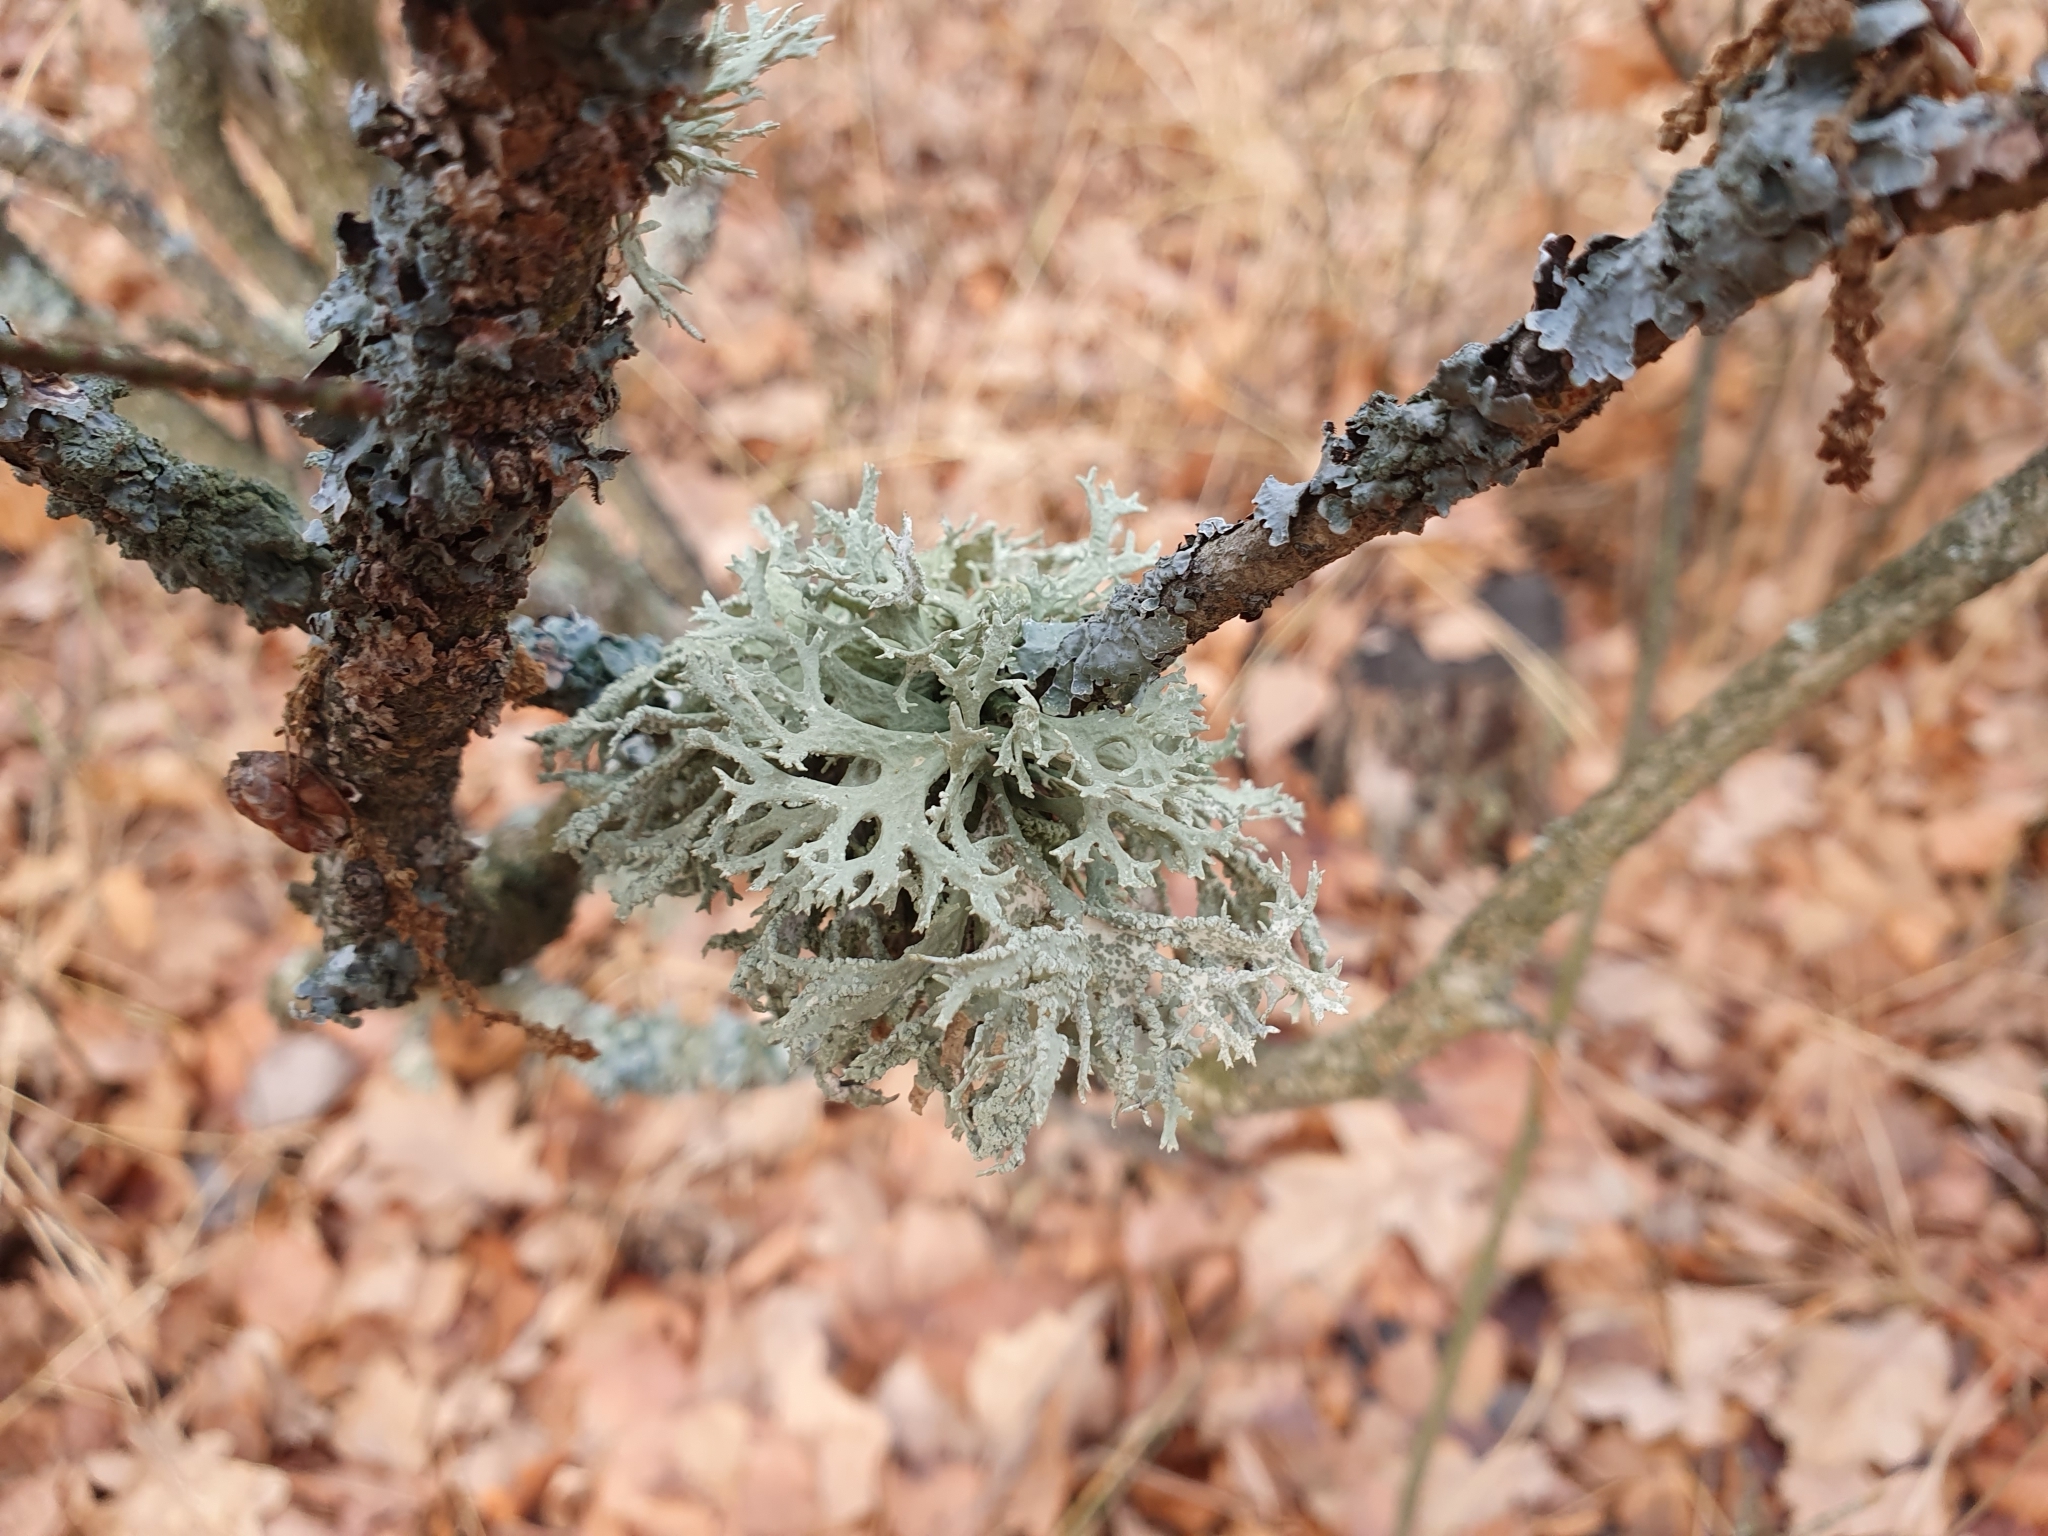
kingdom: Fungi
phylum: Ascomycota
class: Lecanoromycetes
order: Lecanorales
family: Parmeliaceae
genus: Evernia
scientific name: Evernia prunastri
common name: Oak moss
